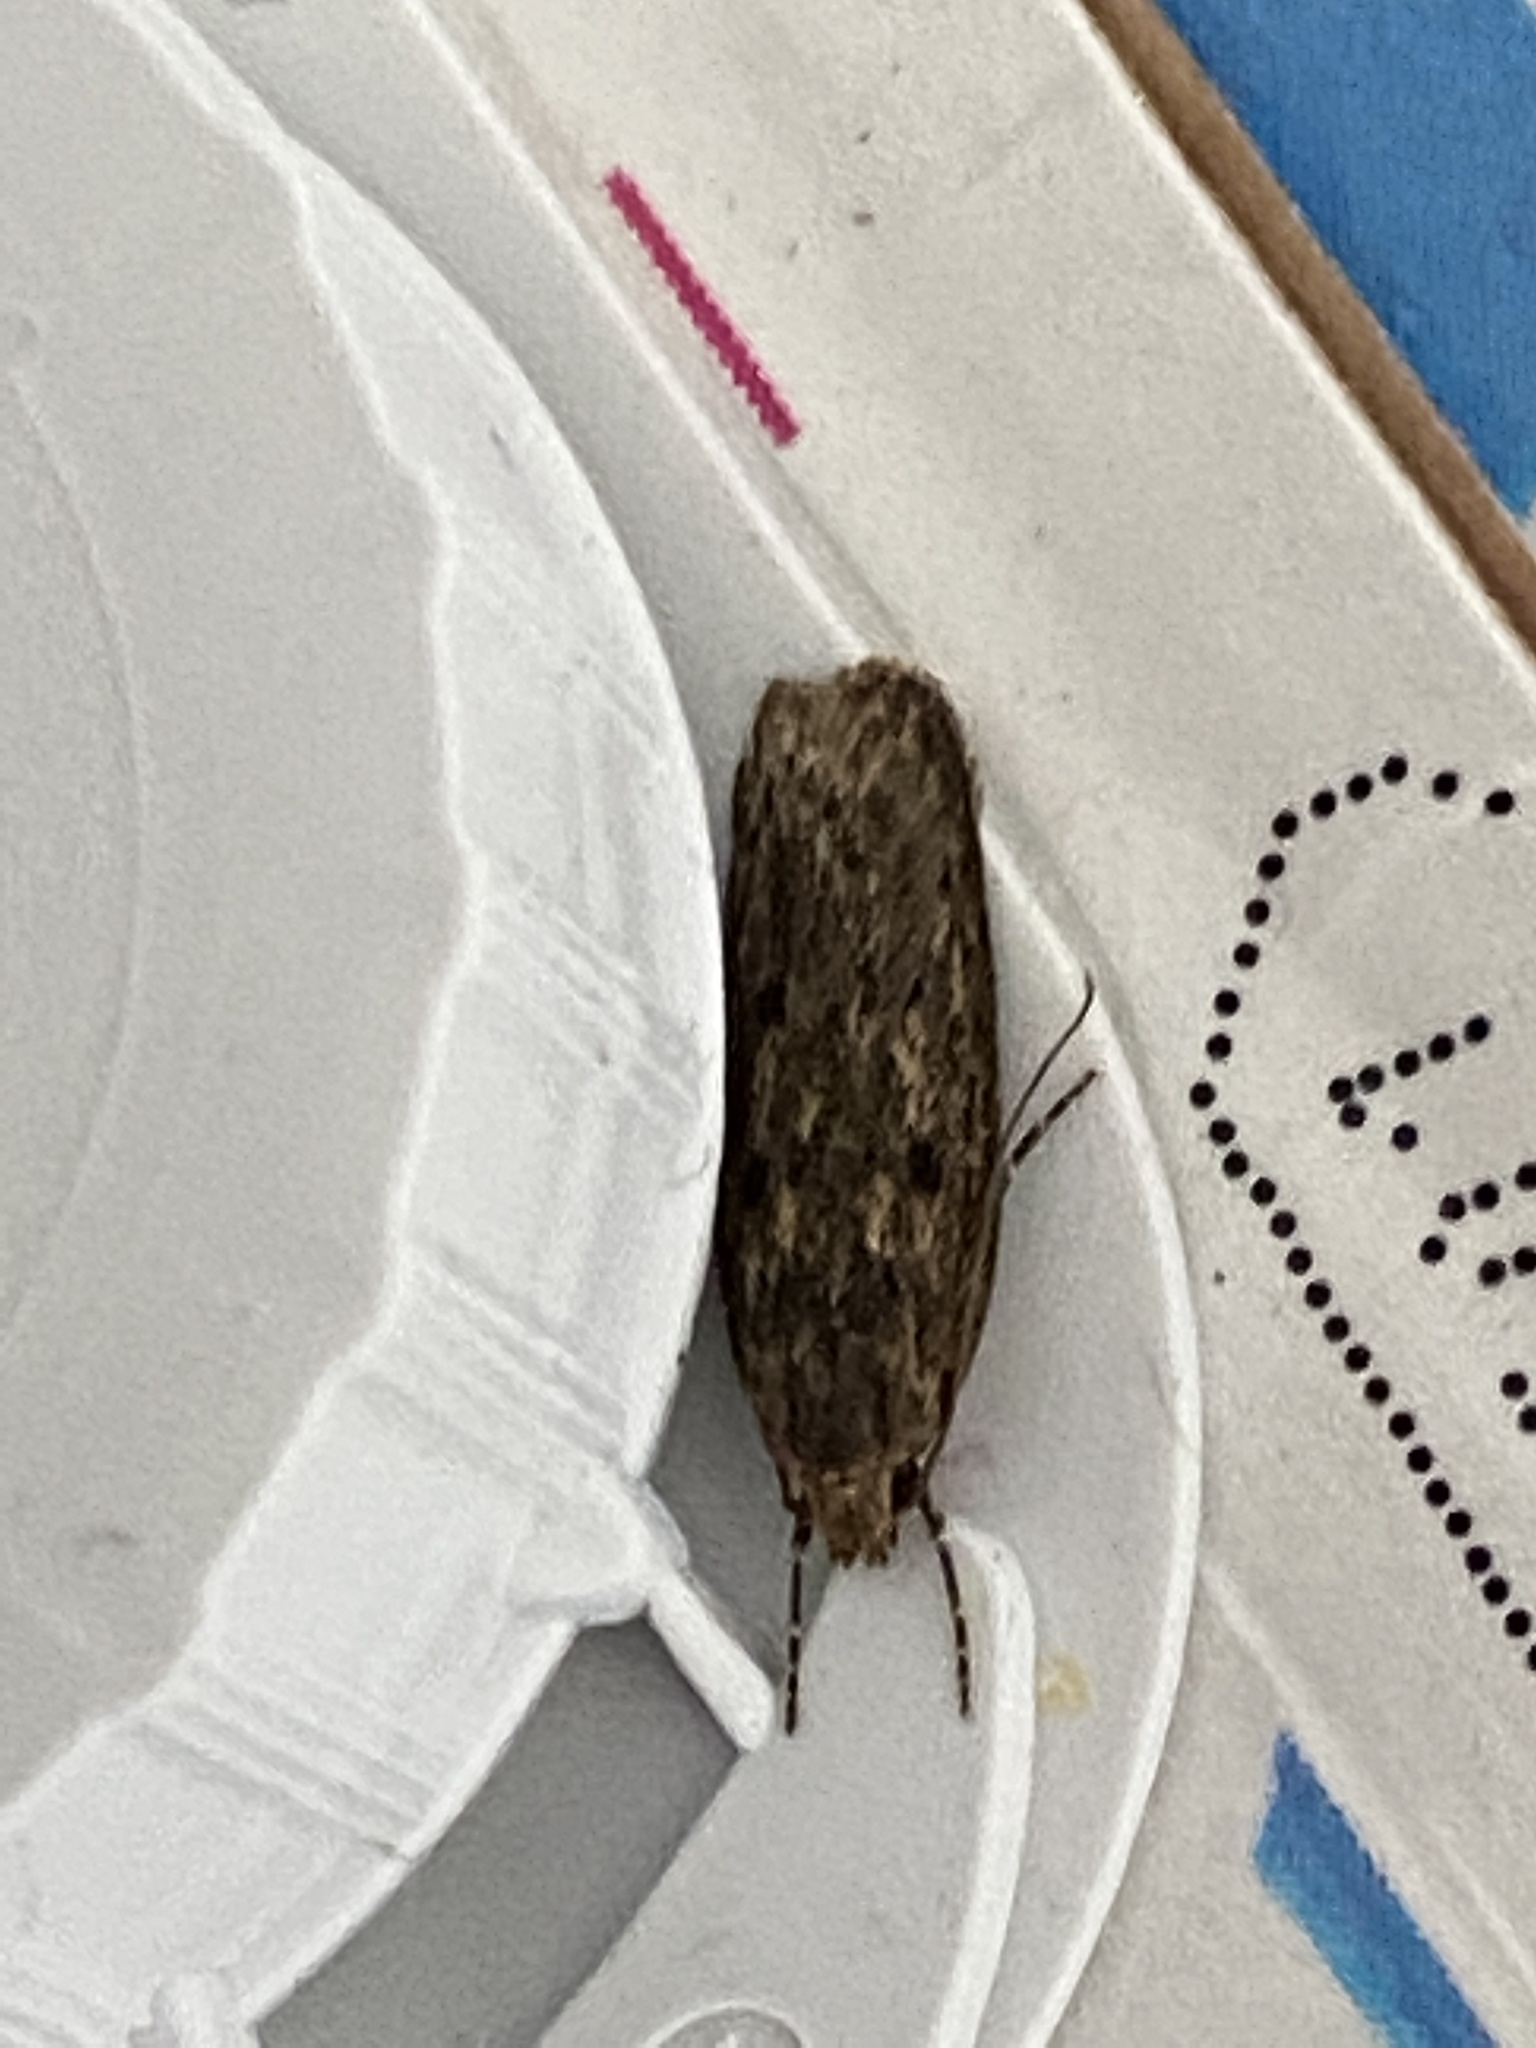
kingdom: Animalia
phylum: Arthropoda
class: Insecta
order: Lepidoptera
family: Oecophoridae
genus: Hofmannophila
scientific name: Hofmannophila pseudospretella
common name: Brown house moth
